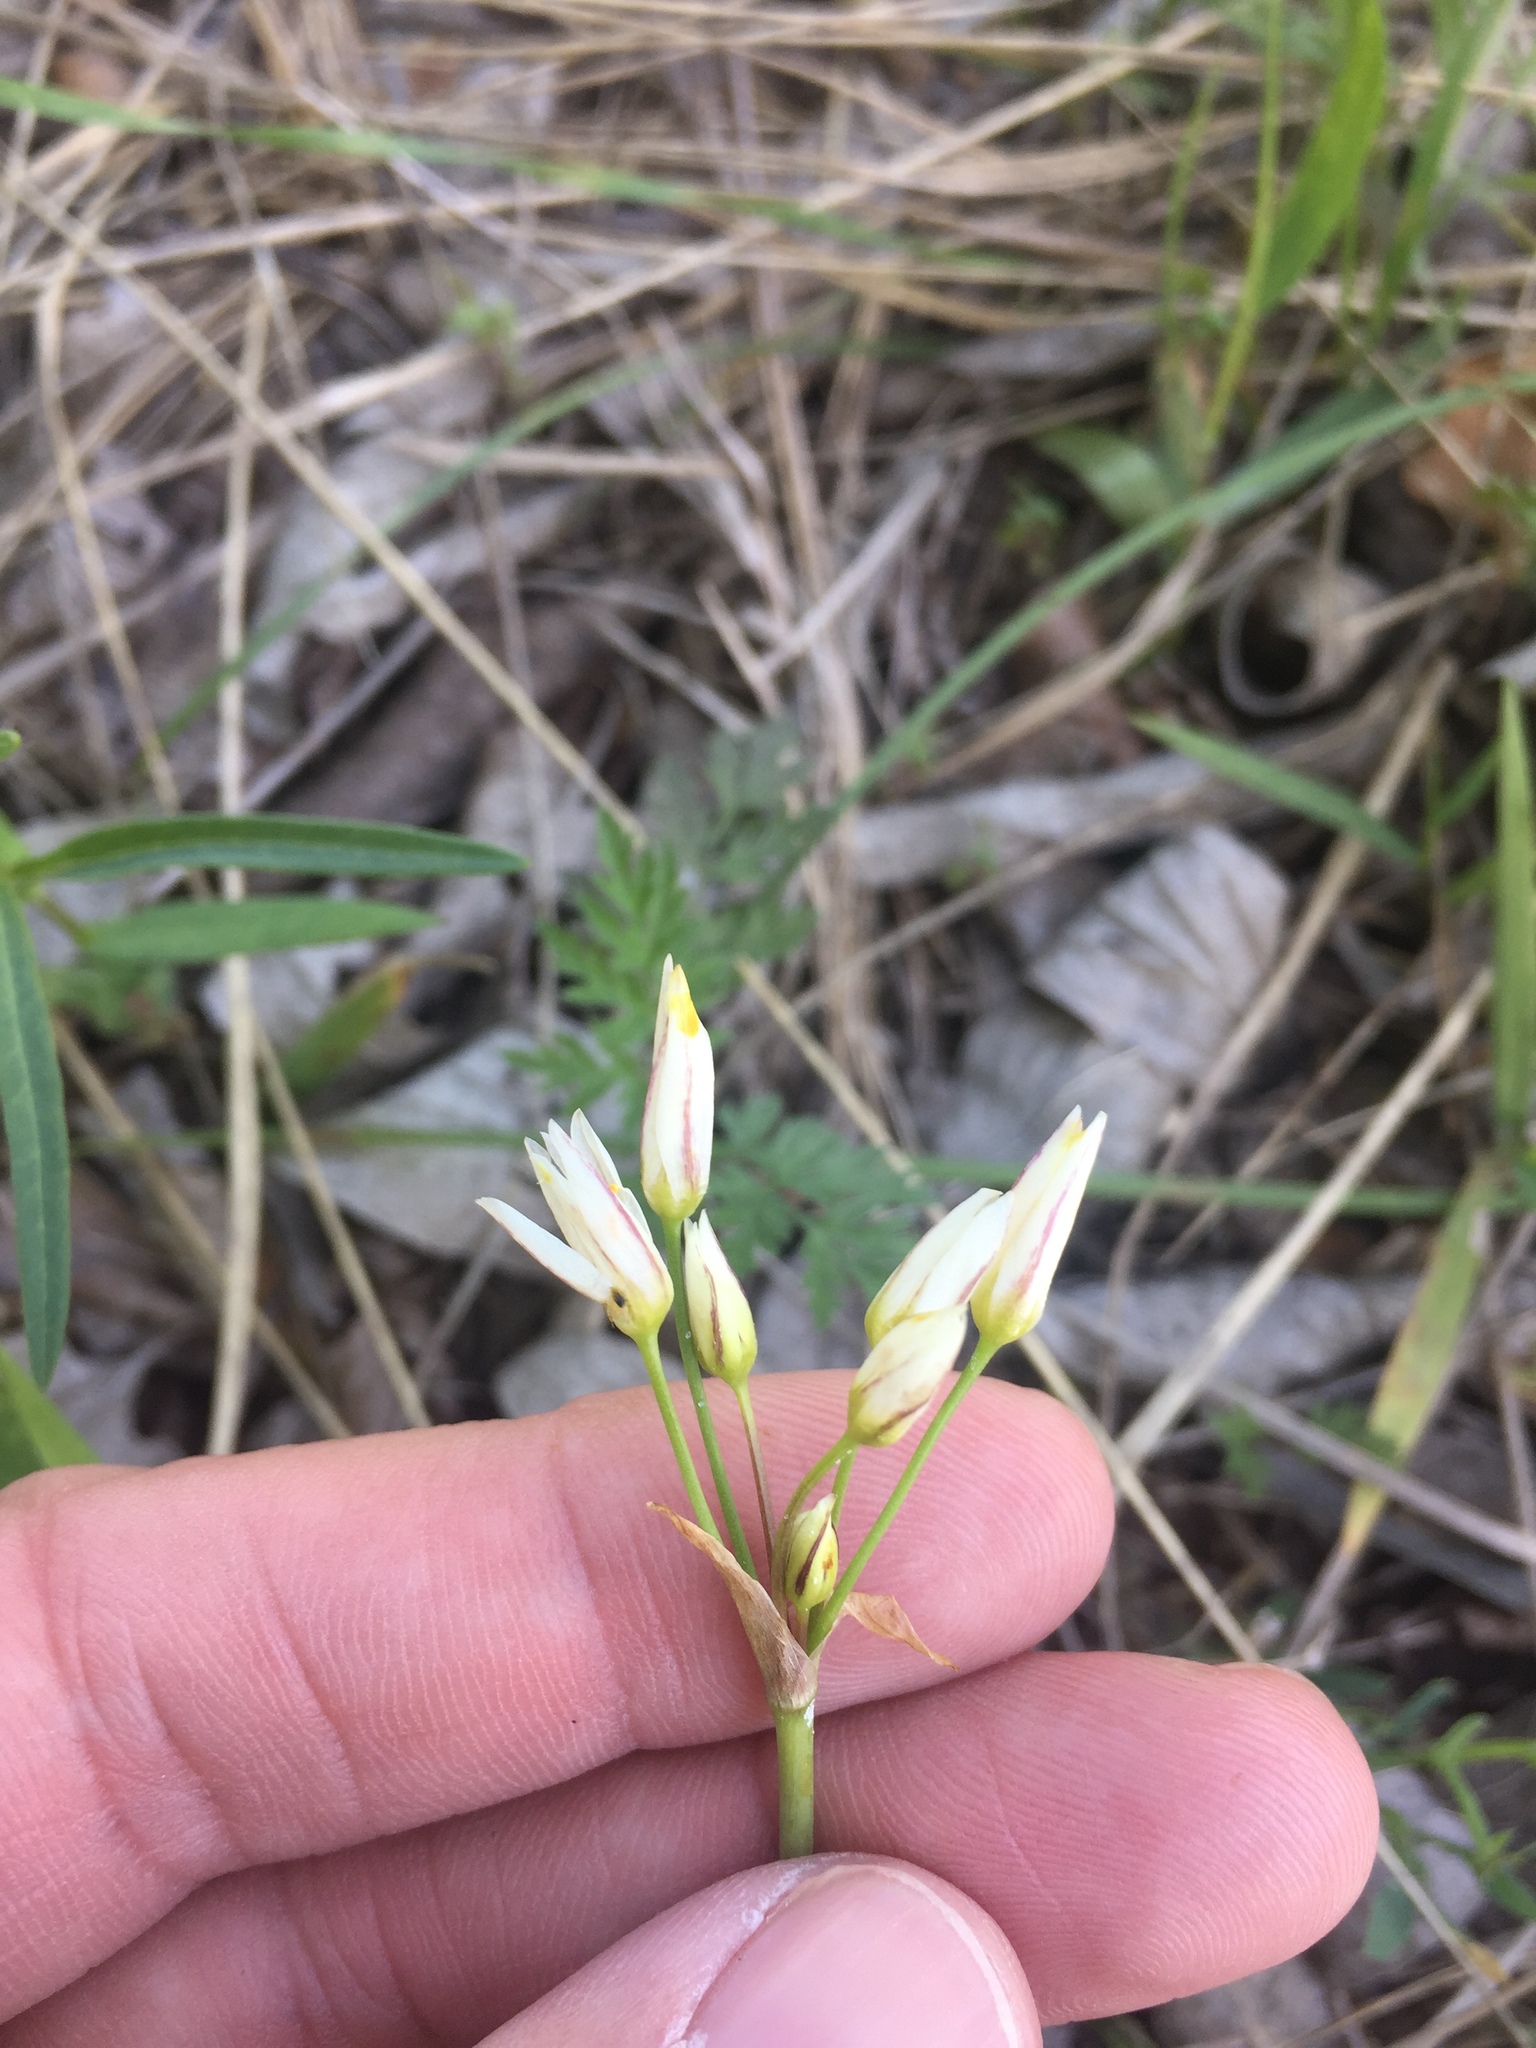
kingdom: Plantae
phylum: Tracheophyta
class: Liliopsida
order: Asparagales
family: Amaryllidaceae
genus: Nothoscordum
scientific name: Nothoscordum bivalve
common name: Crow-poison
